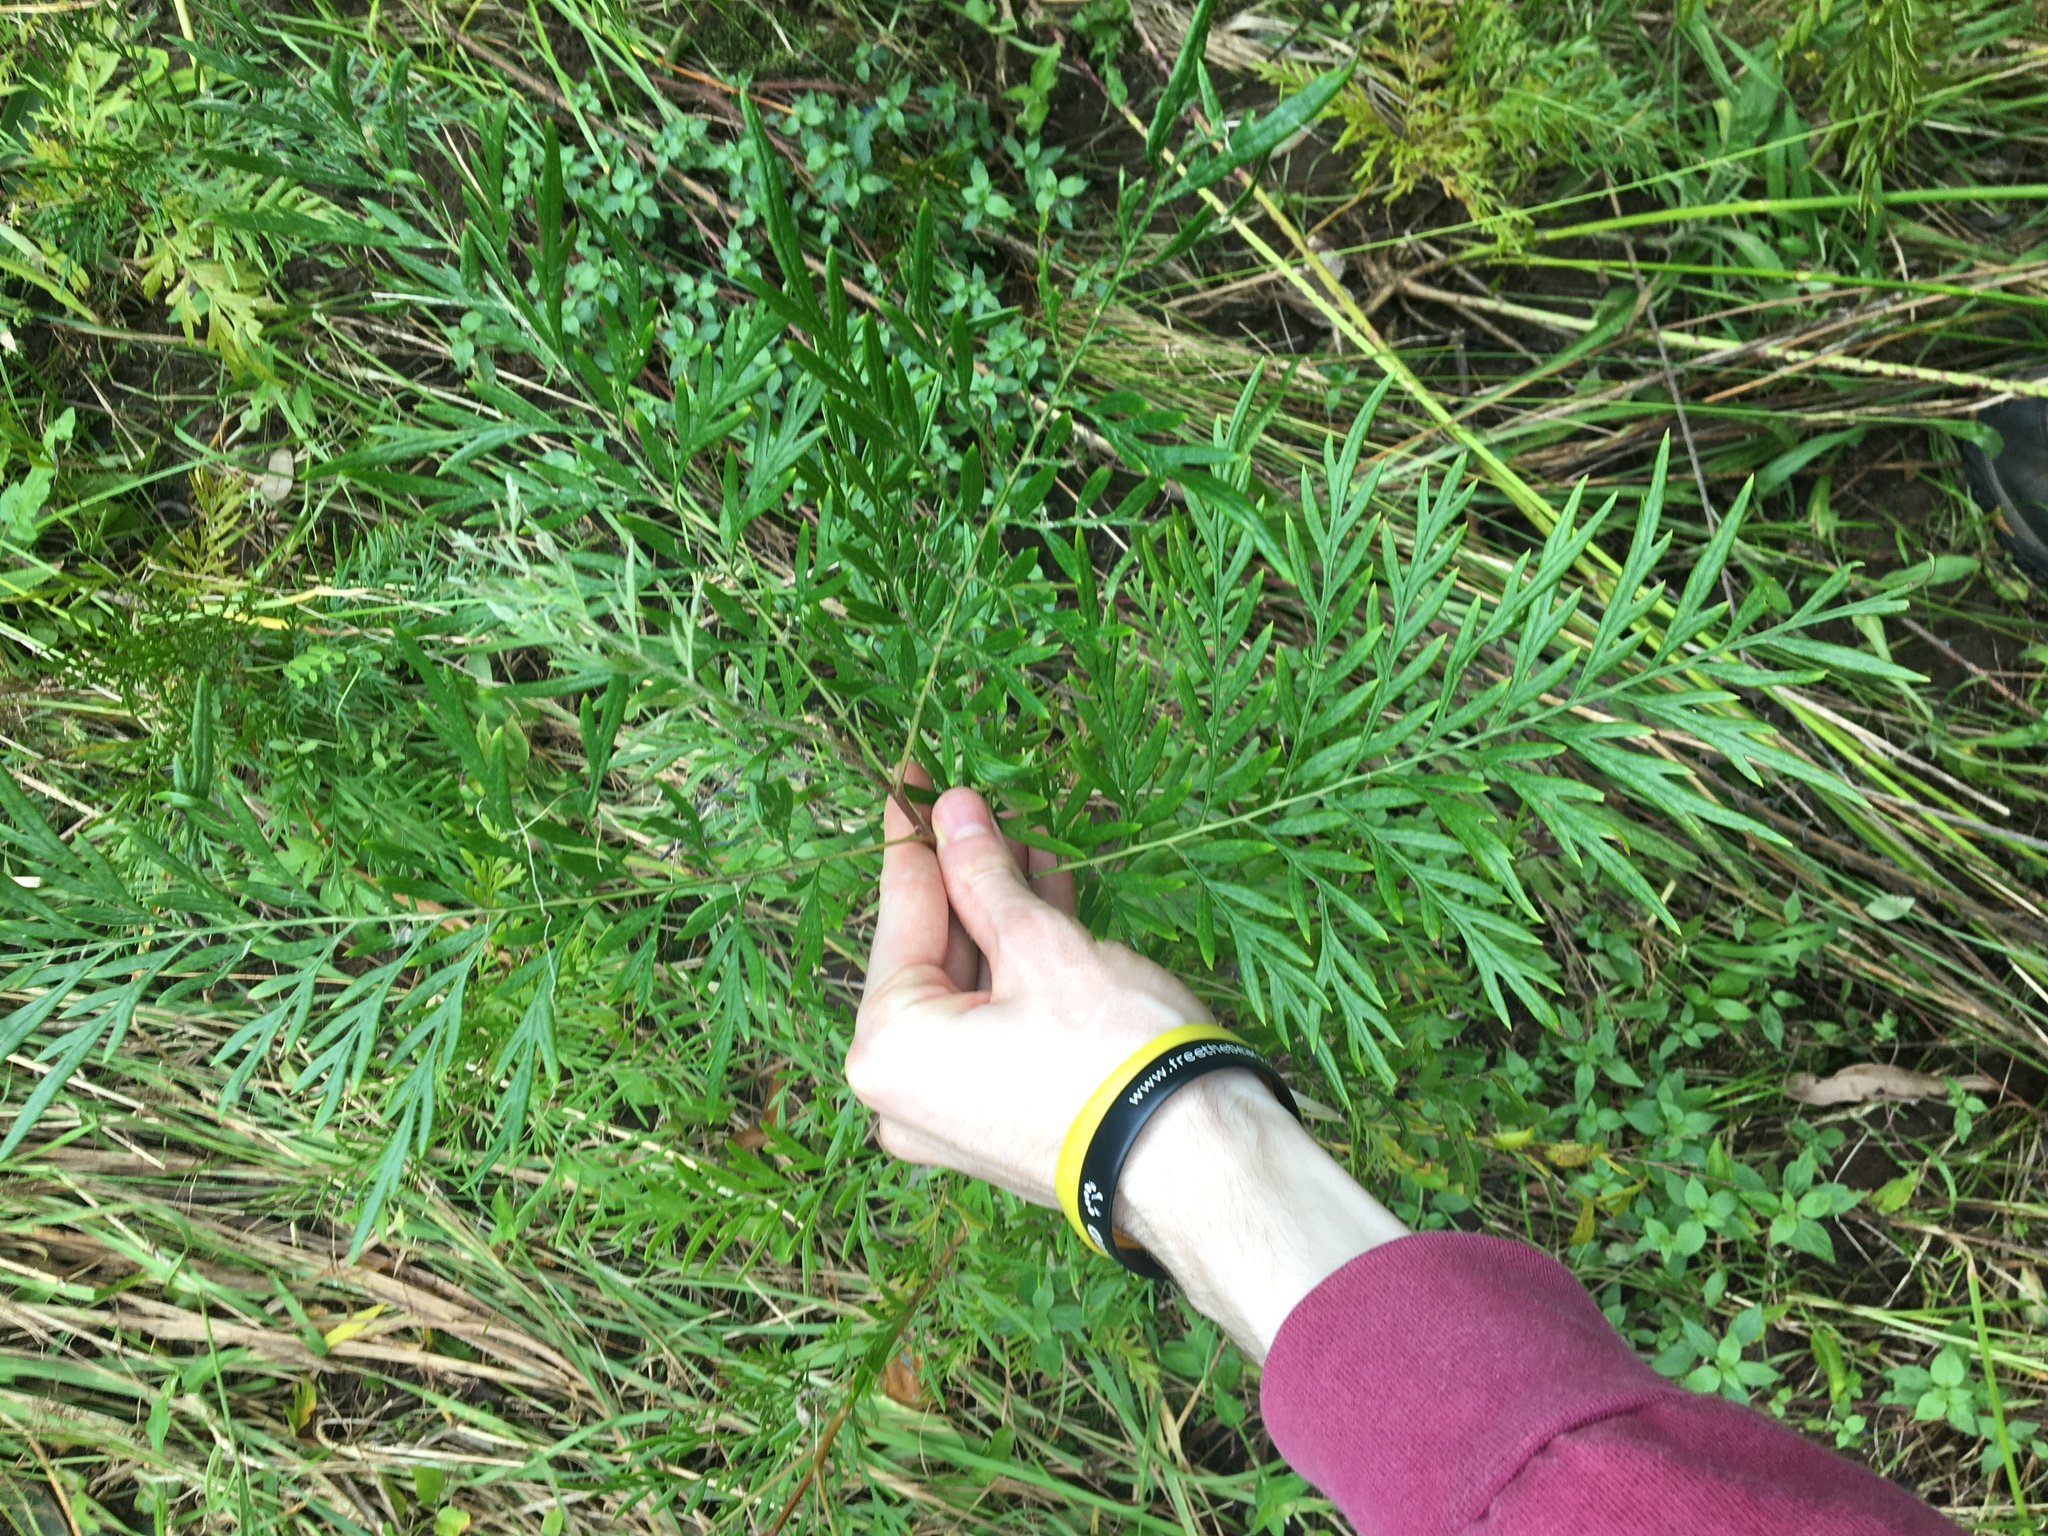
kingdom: Plantae
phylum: Tracheophyta
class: Magnoliopsida
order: Proteales
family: Proteaceae
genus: Grevillea
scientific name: Grevillea robusta
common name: Silkoak
